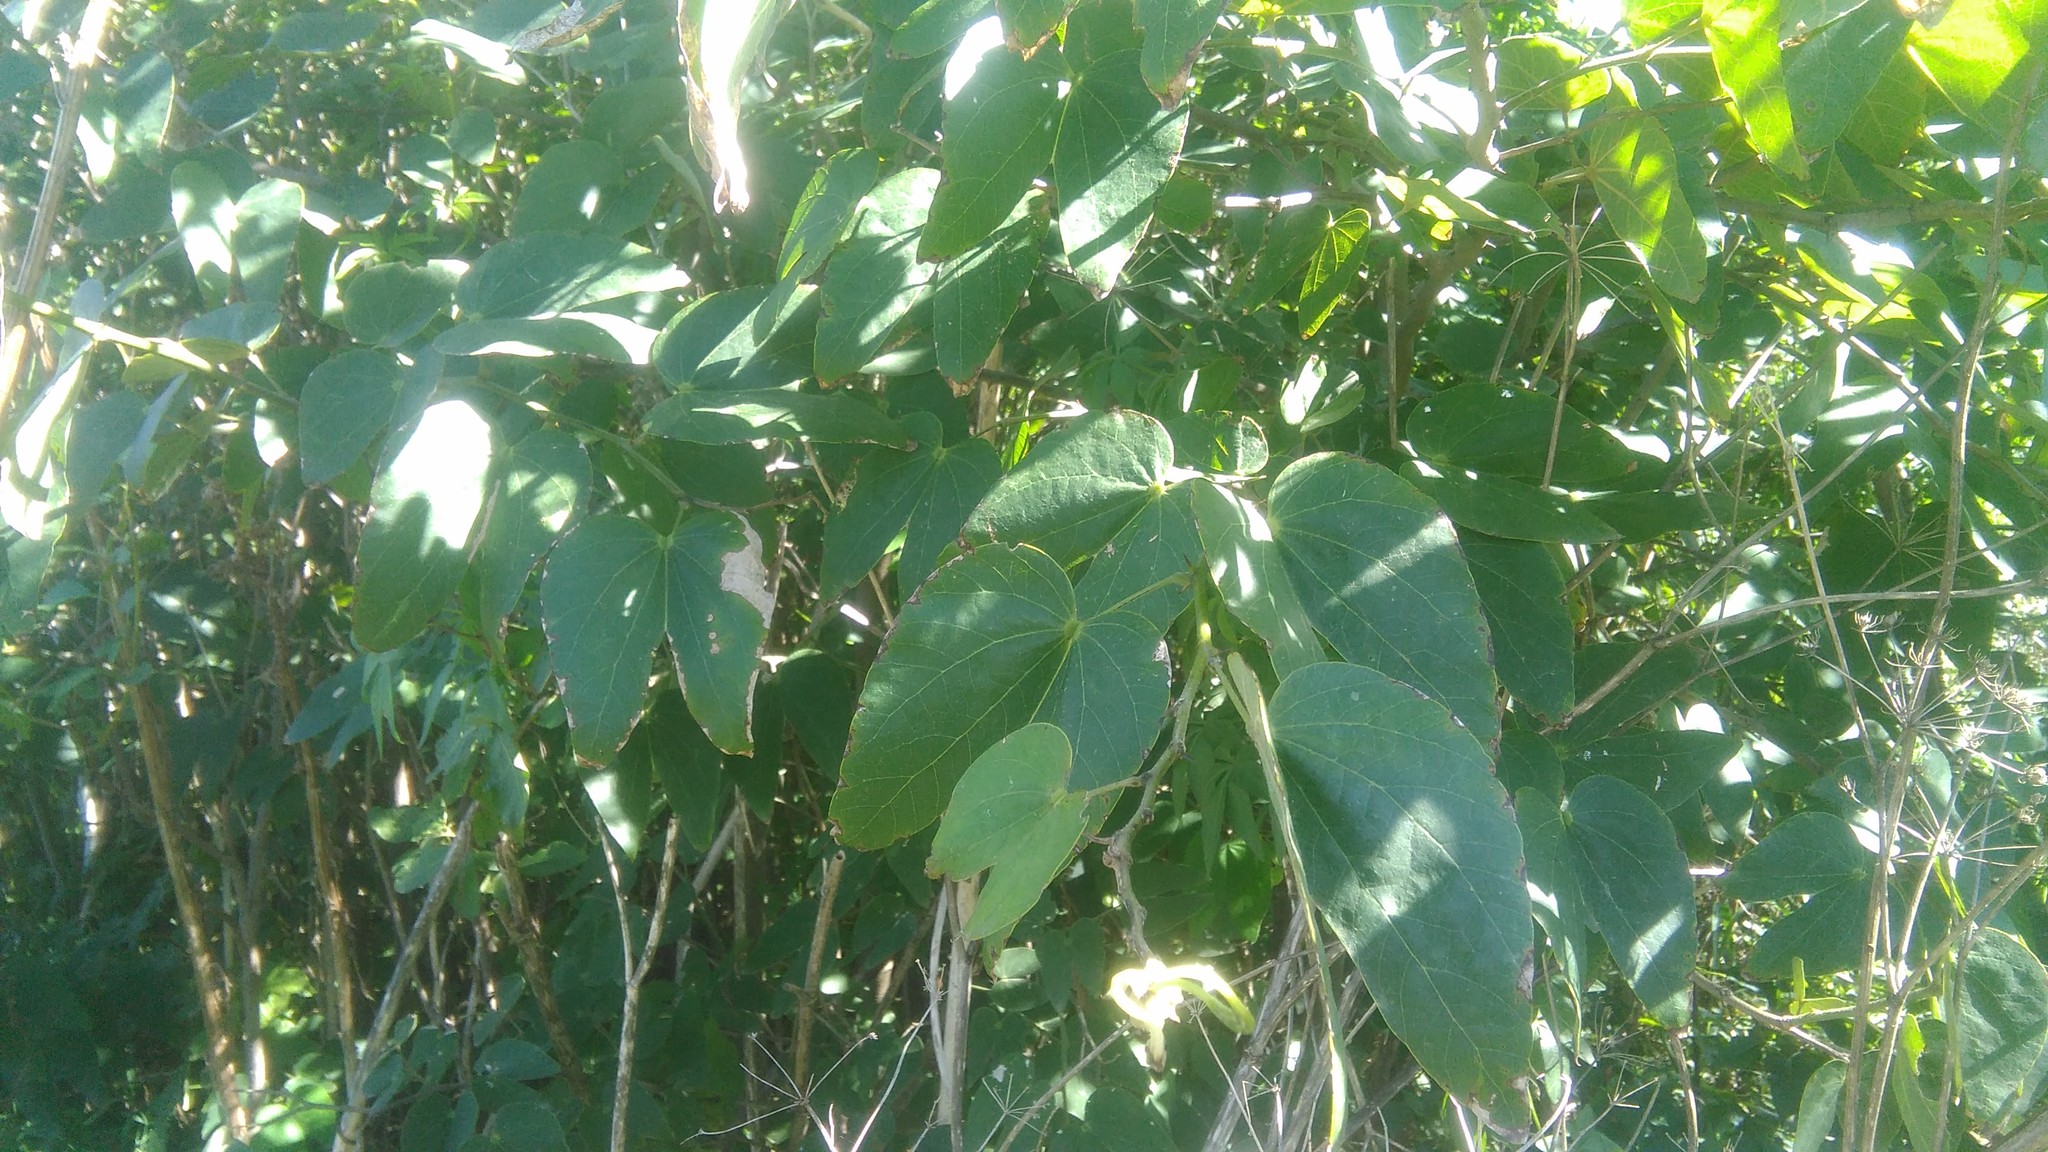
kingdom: Plantae
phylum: Tracheophyta
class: Magnoliopsida
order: Fabales
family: Fabaceae
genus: Bauhinia
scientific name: Bauhinia forficata
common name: Orchid tree
